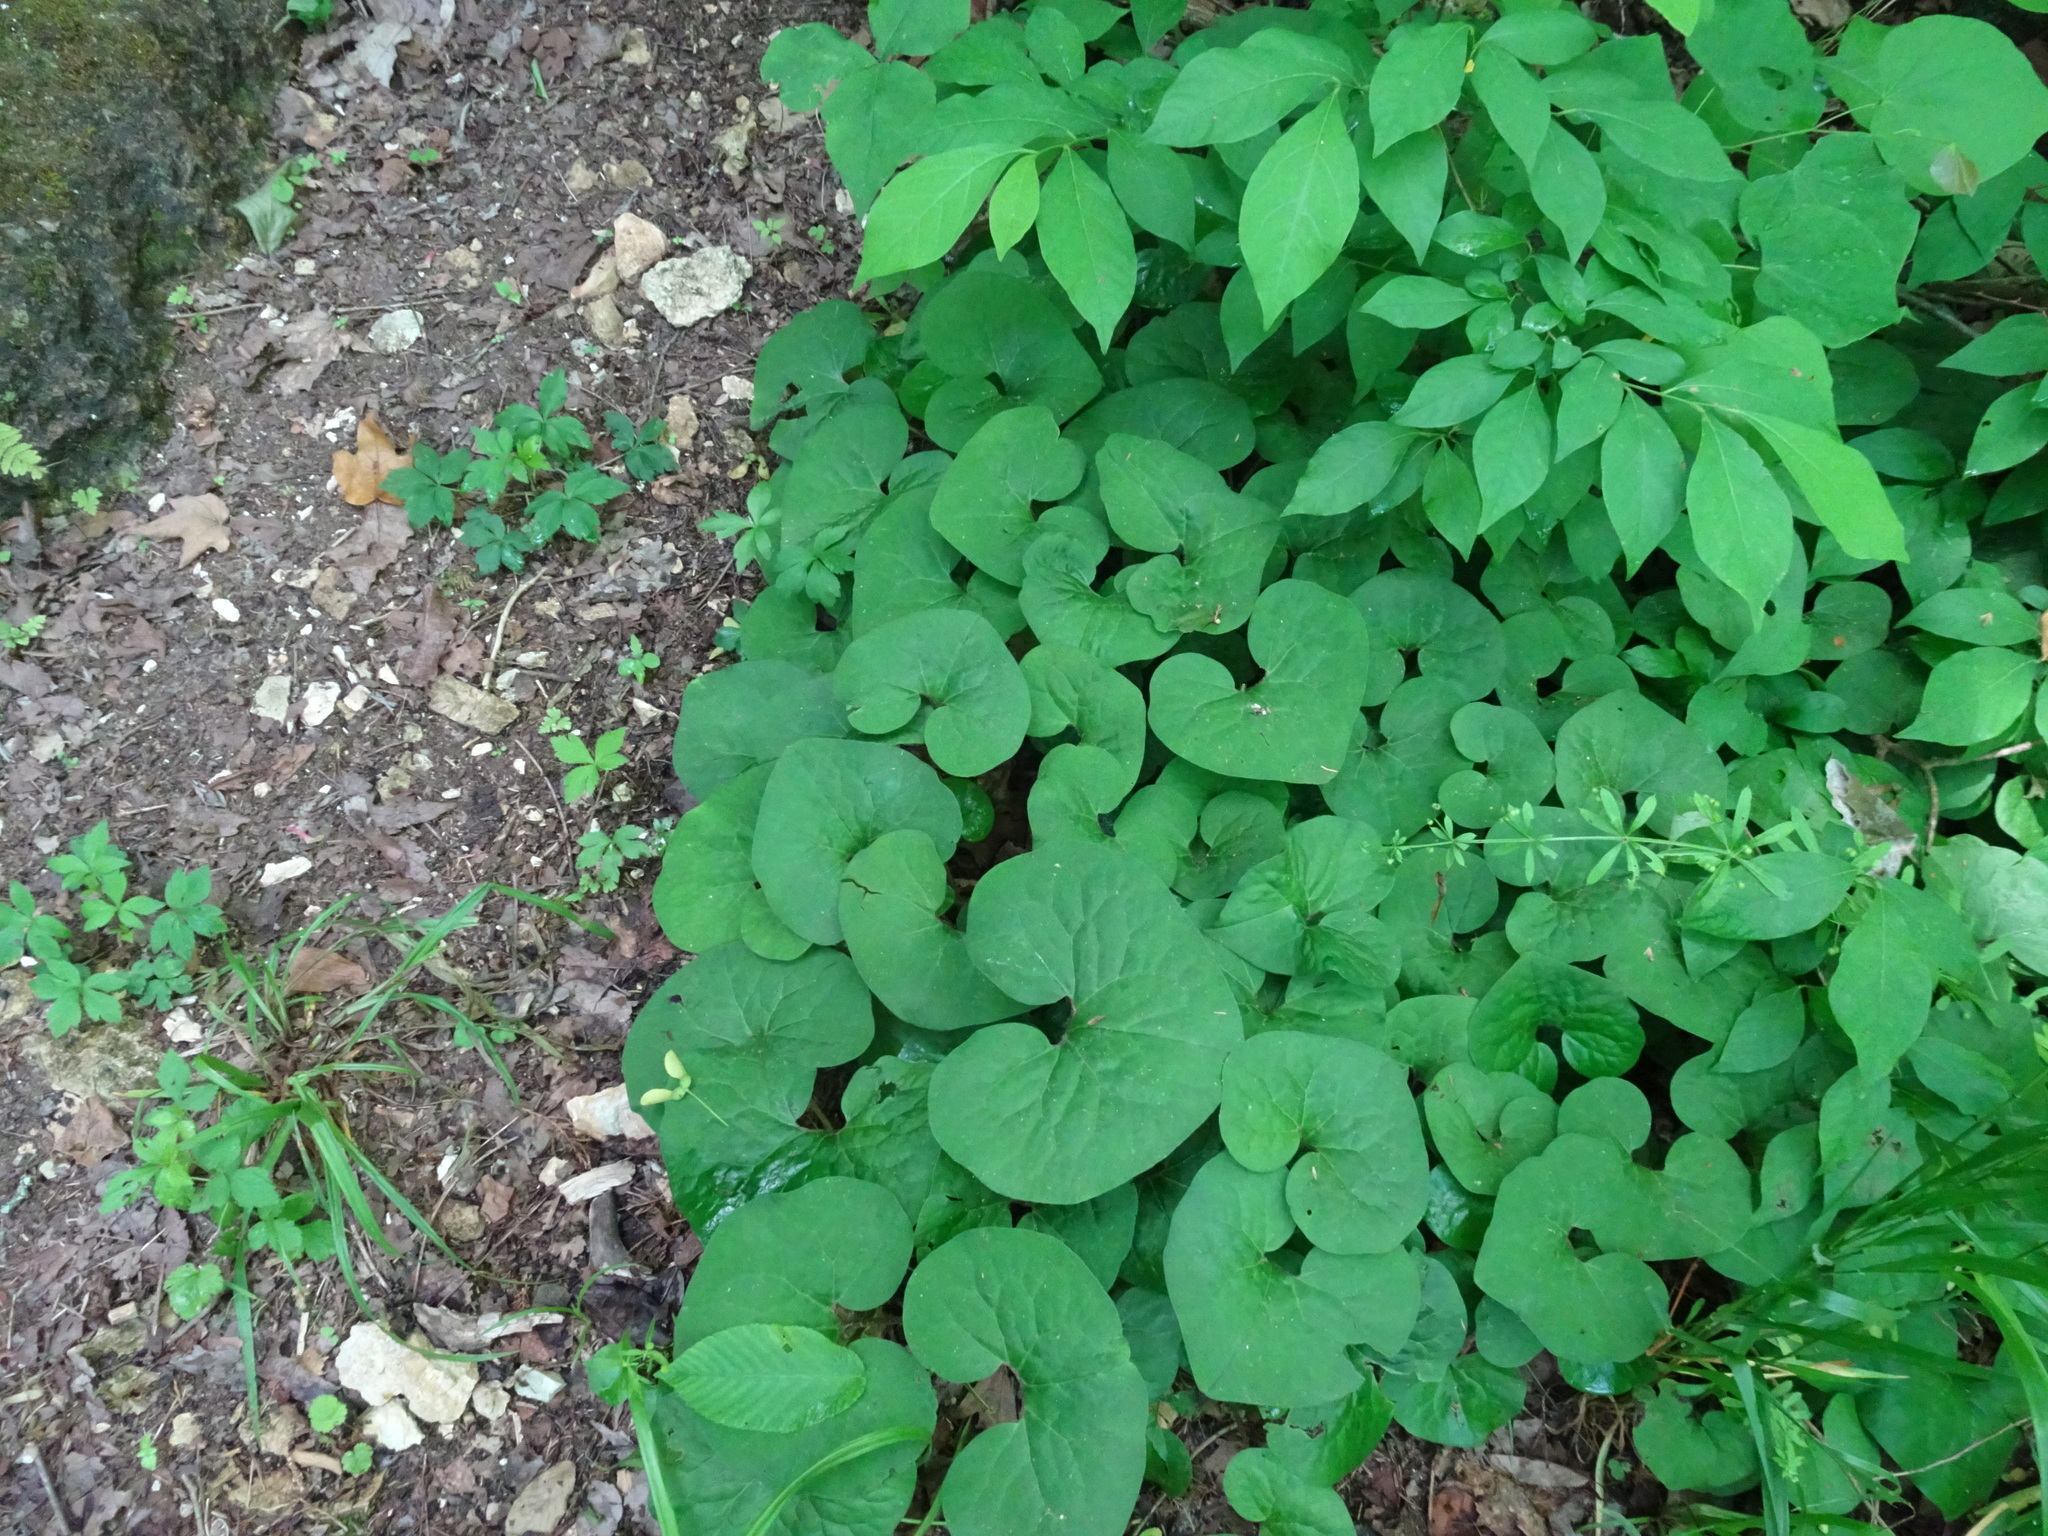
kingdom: Plantae
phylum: Tracheophyta
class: Magnoliopsida
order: Piperales
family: Aristolochiaceae
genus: Asarum
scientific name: Asarum canadense
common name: Wild ginger
